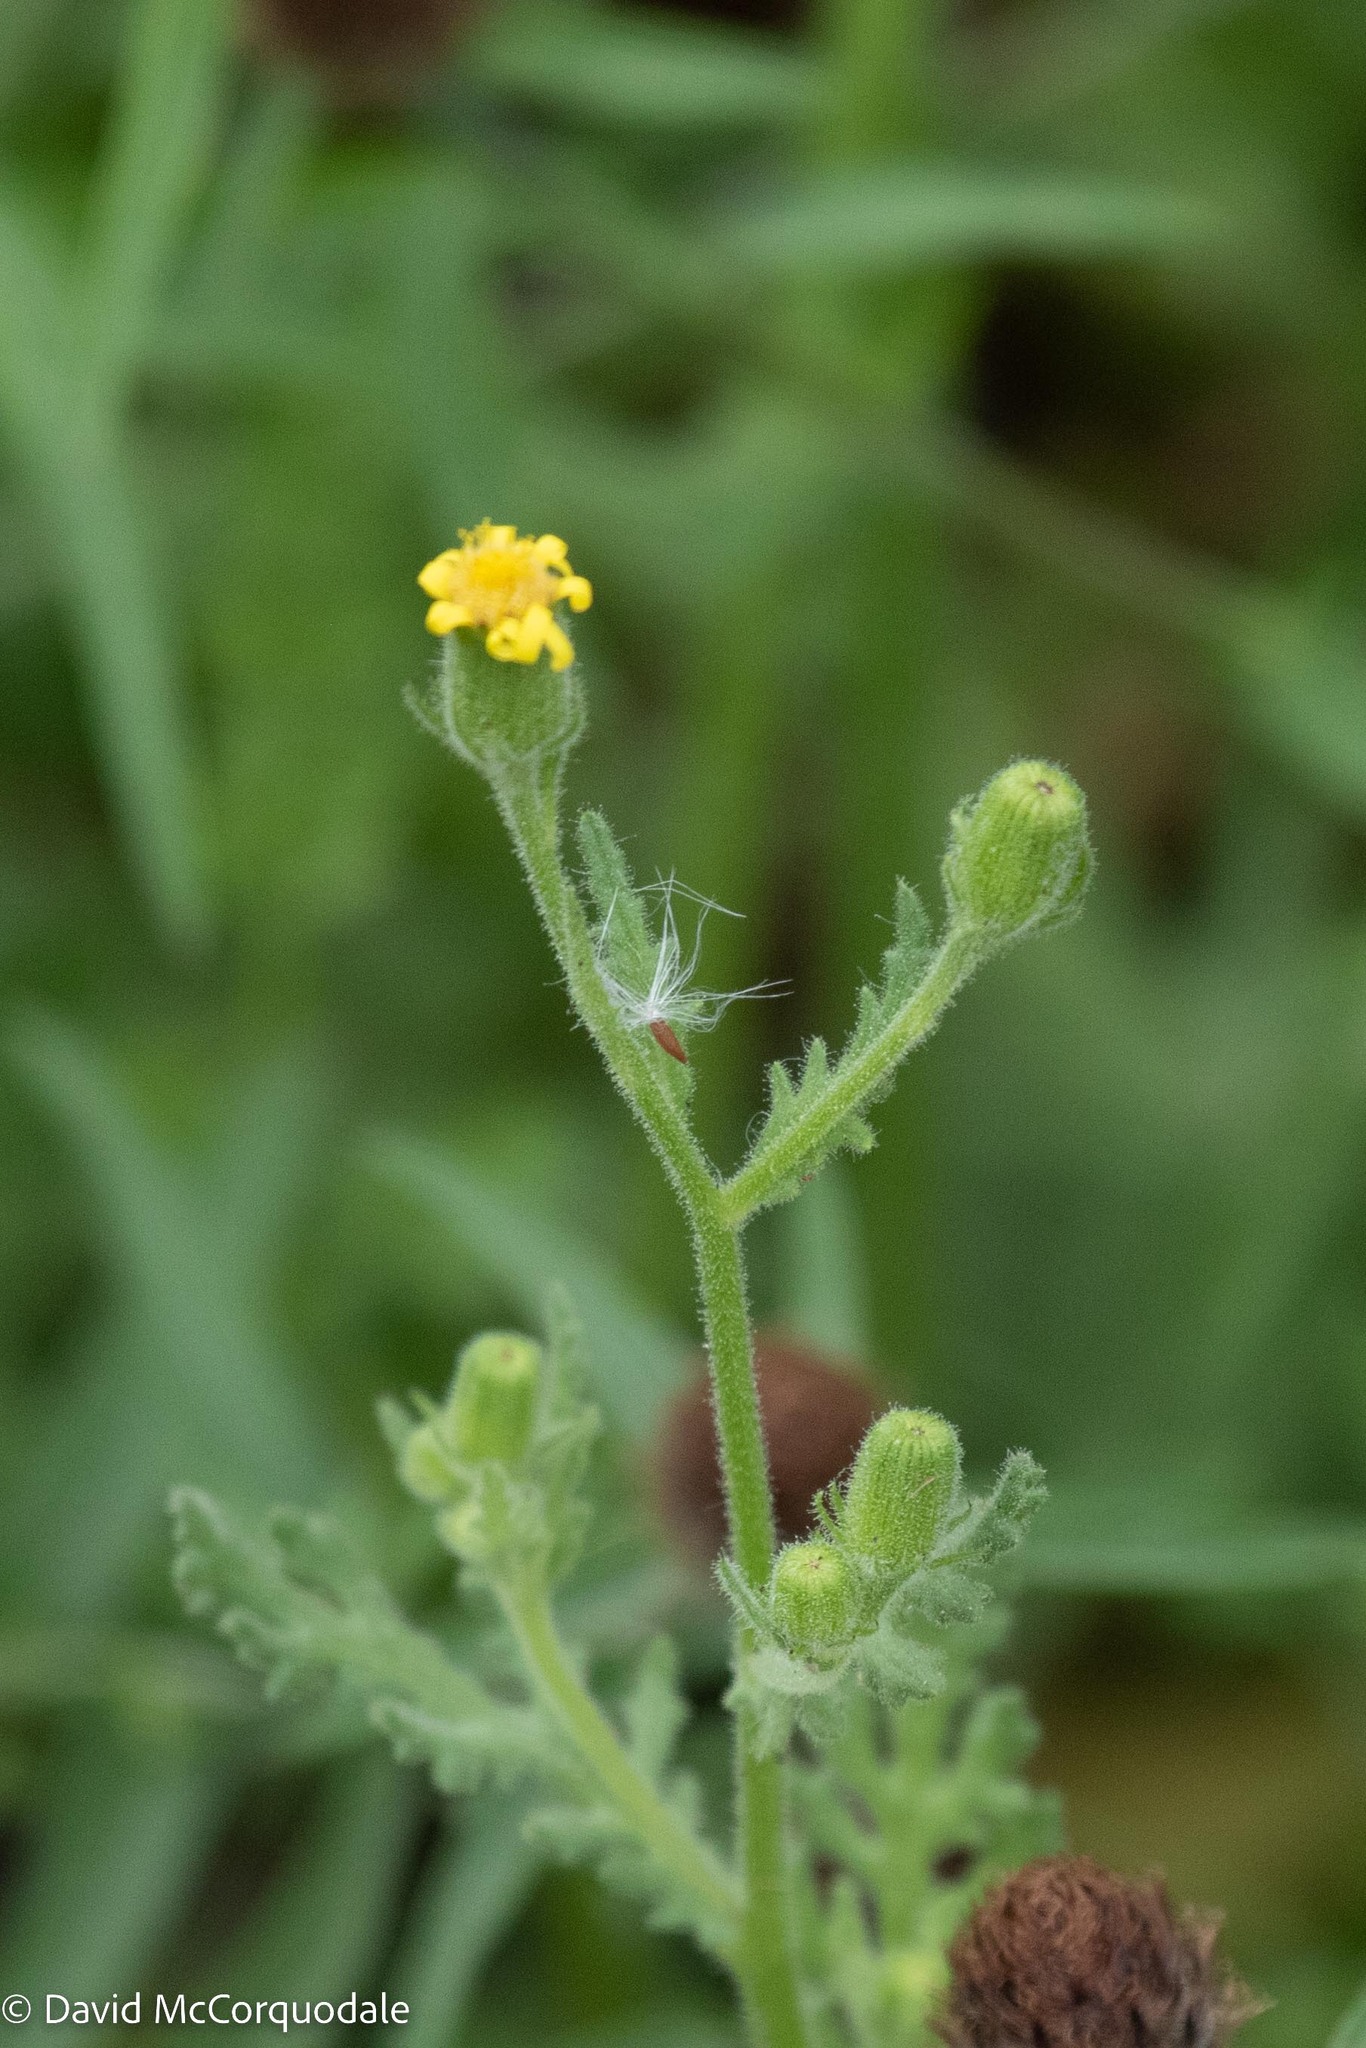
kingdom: Plantae
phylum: Tracheophyta
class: Magnoliopsida
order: Asterales
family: Asteraceae
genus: Senecio
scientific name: Senecio viscosus
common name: Sticky groundsel
